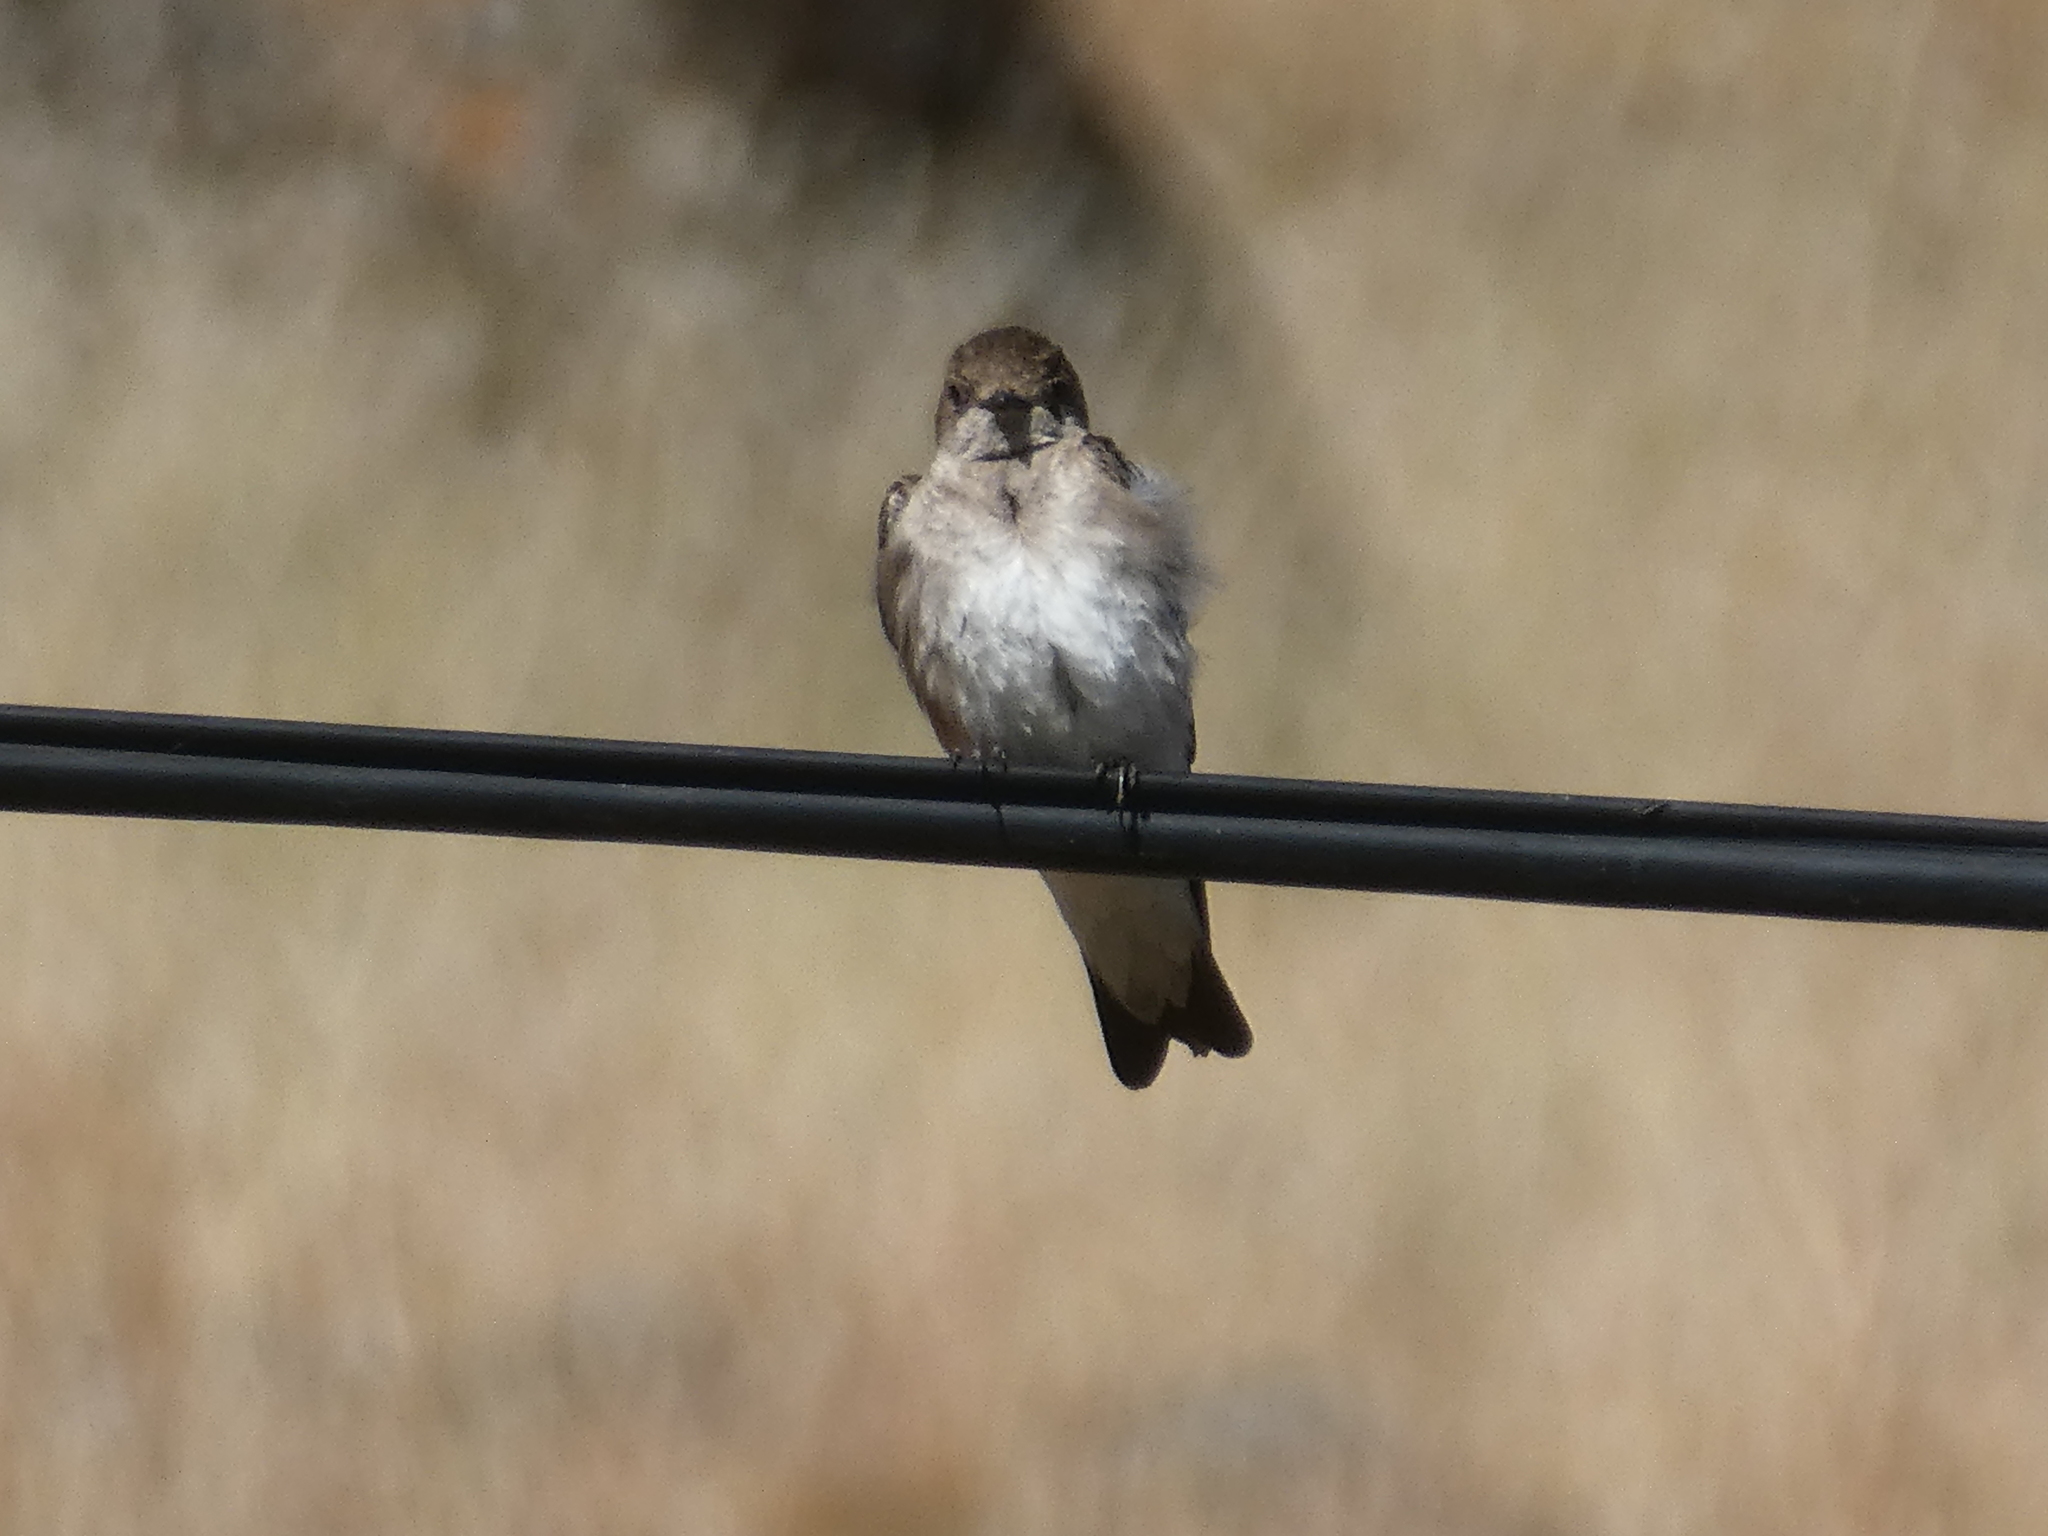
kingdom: Animalia
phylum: Chordata
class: Aves
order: Passeriformes
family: Hirundinidae
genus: Stelgidopteryx
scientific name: Stelgidopteryx serripennis
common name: Northern rough-winged swallow
